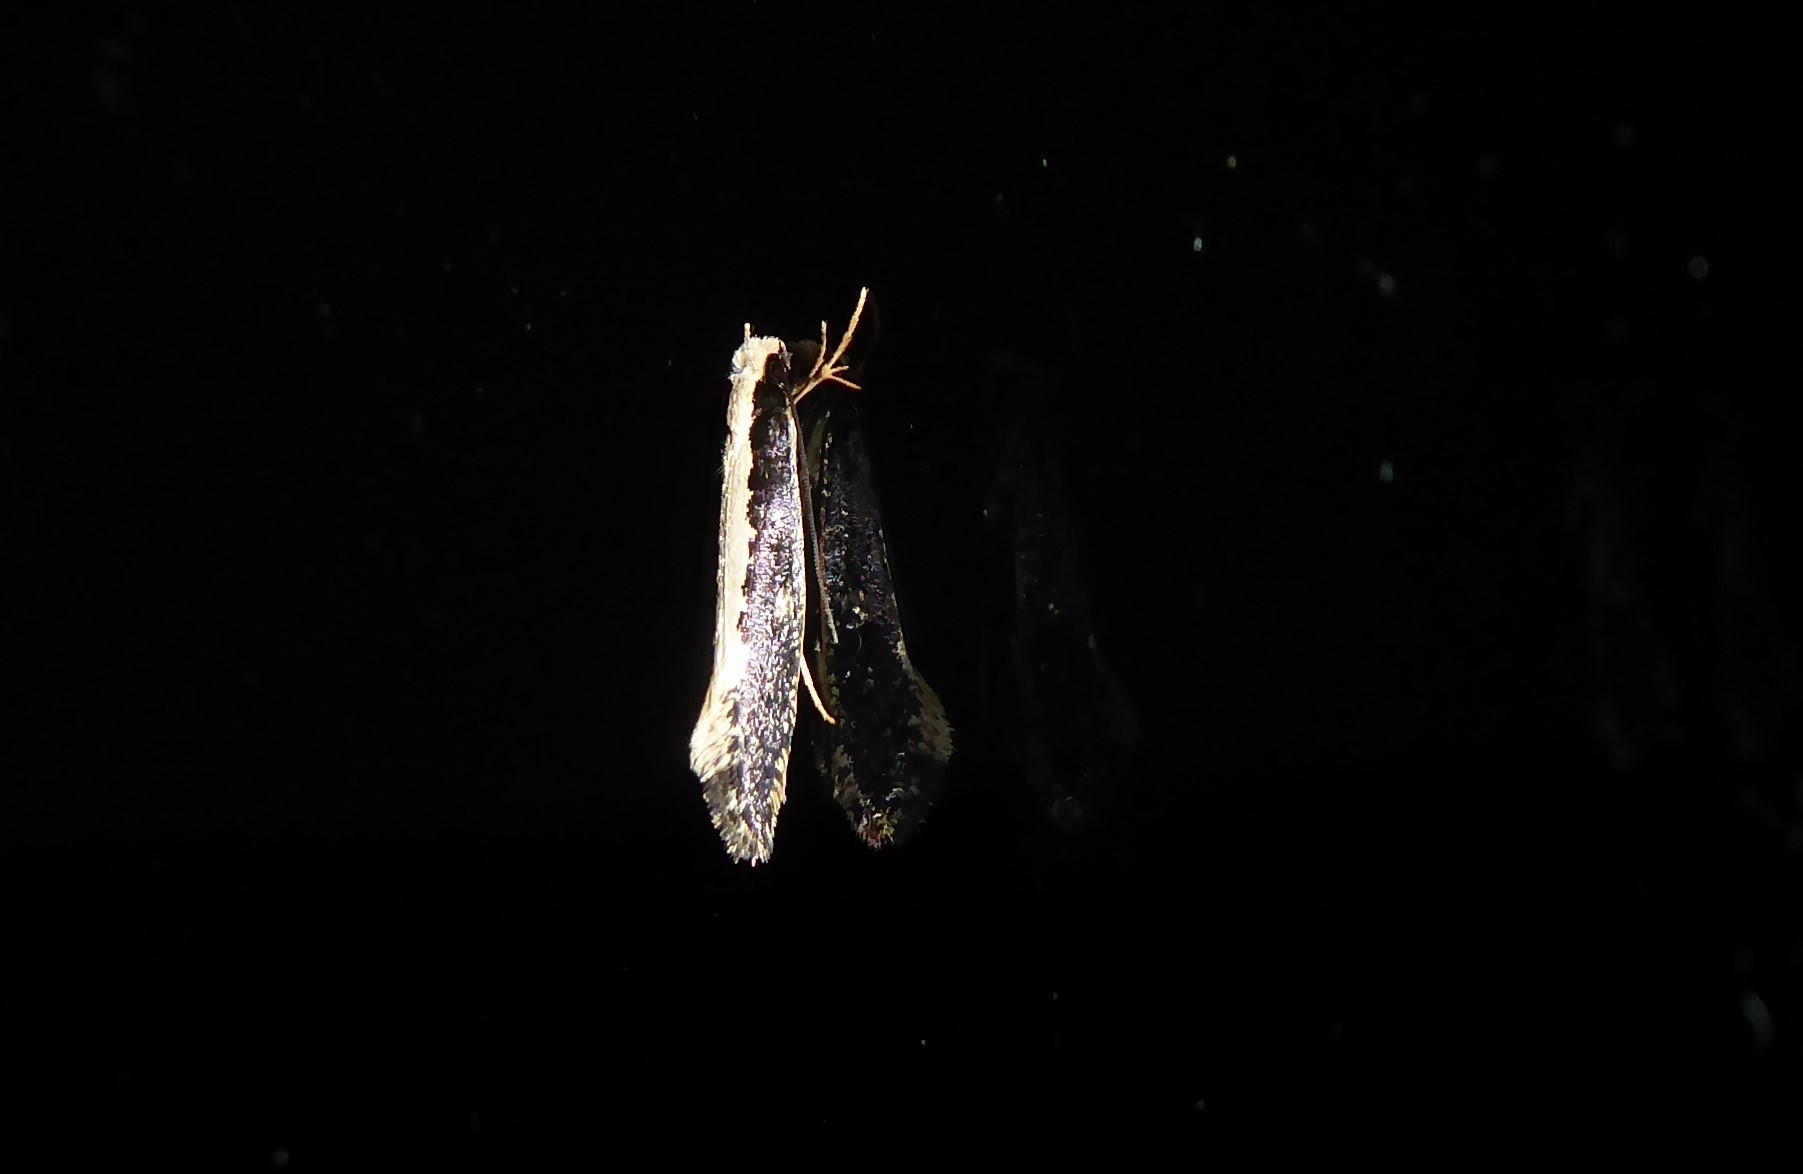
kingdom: Animalia
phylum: Arthropoda
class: Insecta
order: Lepidoptera
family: Tineidae
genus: Monopis
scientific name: Monopis ethelella
